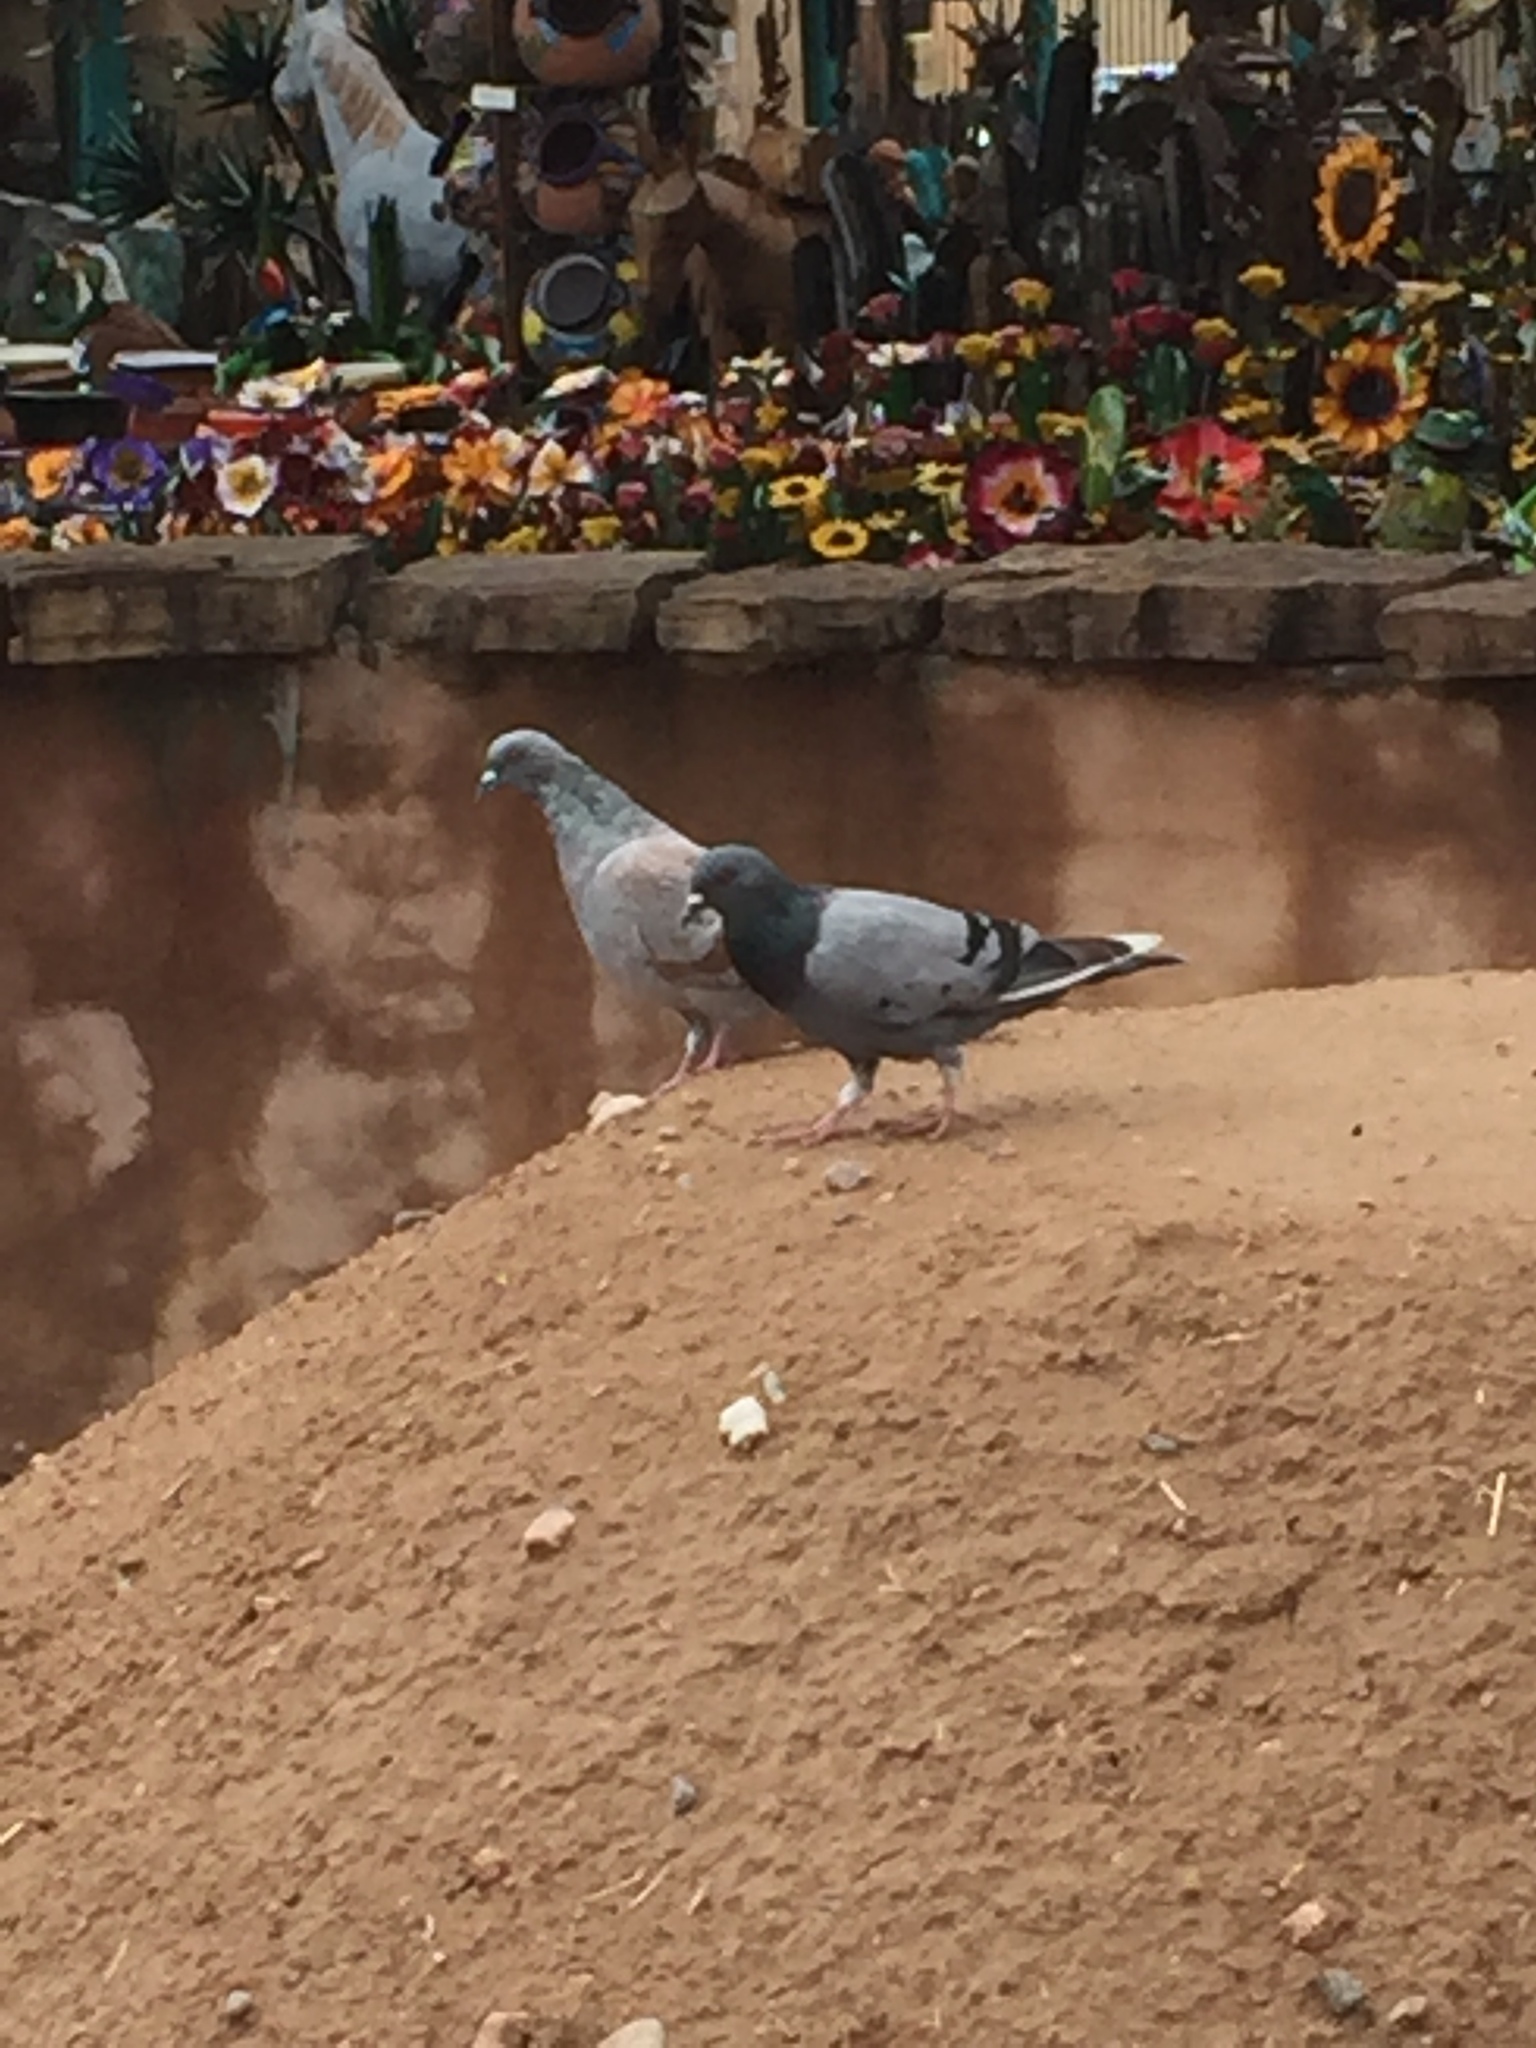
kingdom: Animalia
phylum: Chordata
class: Aves
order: Columbiformes
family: Columbidae
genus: Columba
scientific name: Columba livia
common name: Rock pigeon
